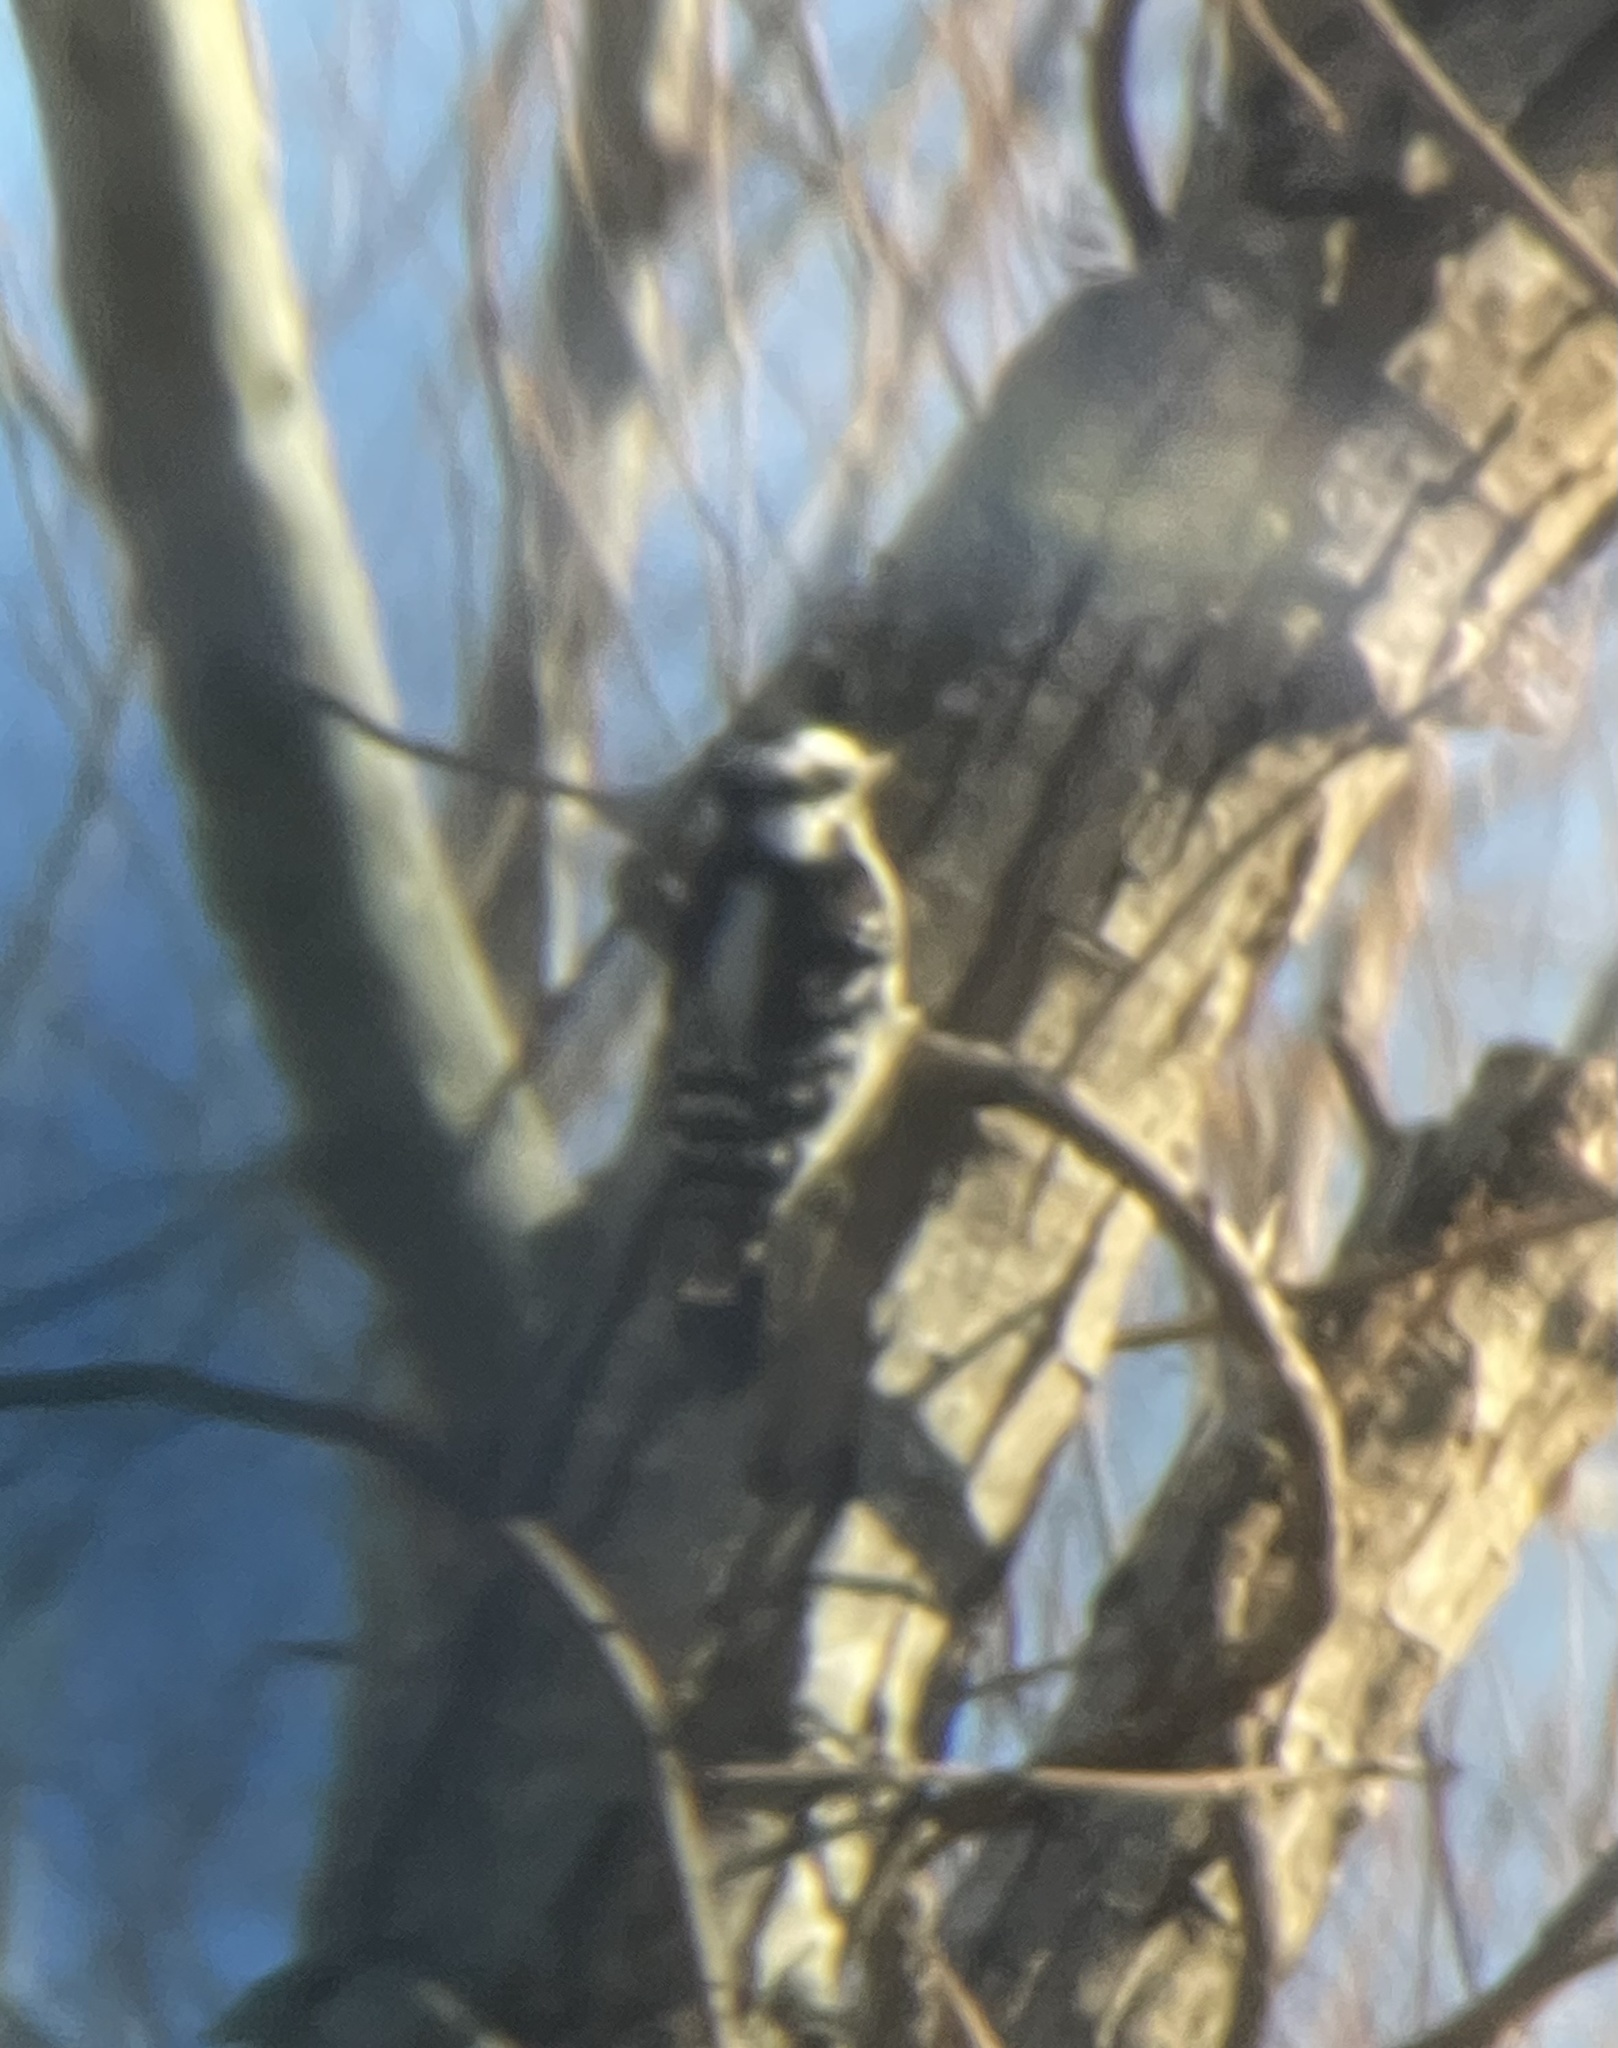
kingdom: Animalia
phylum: Chordata
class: Aves
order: Piciformes
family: Picidae
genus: Dryobates
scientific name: Dryobates pubescens
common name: Downy woodpecker
